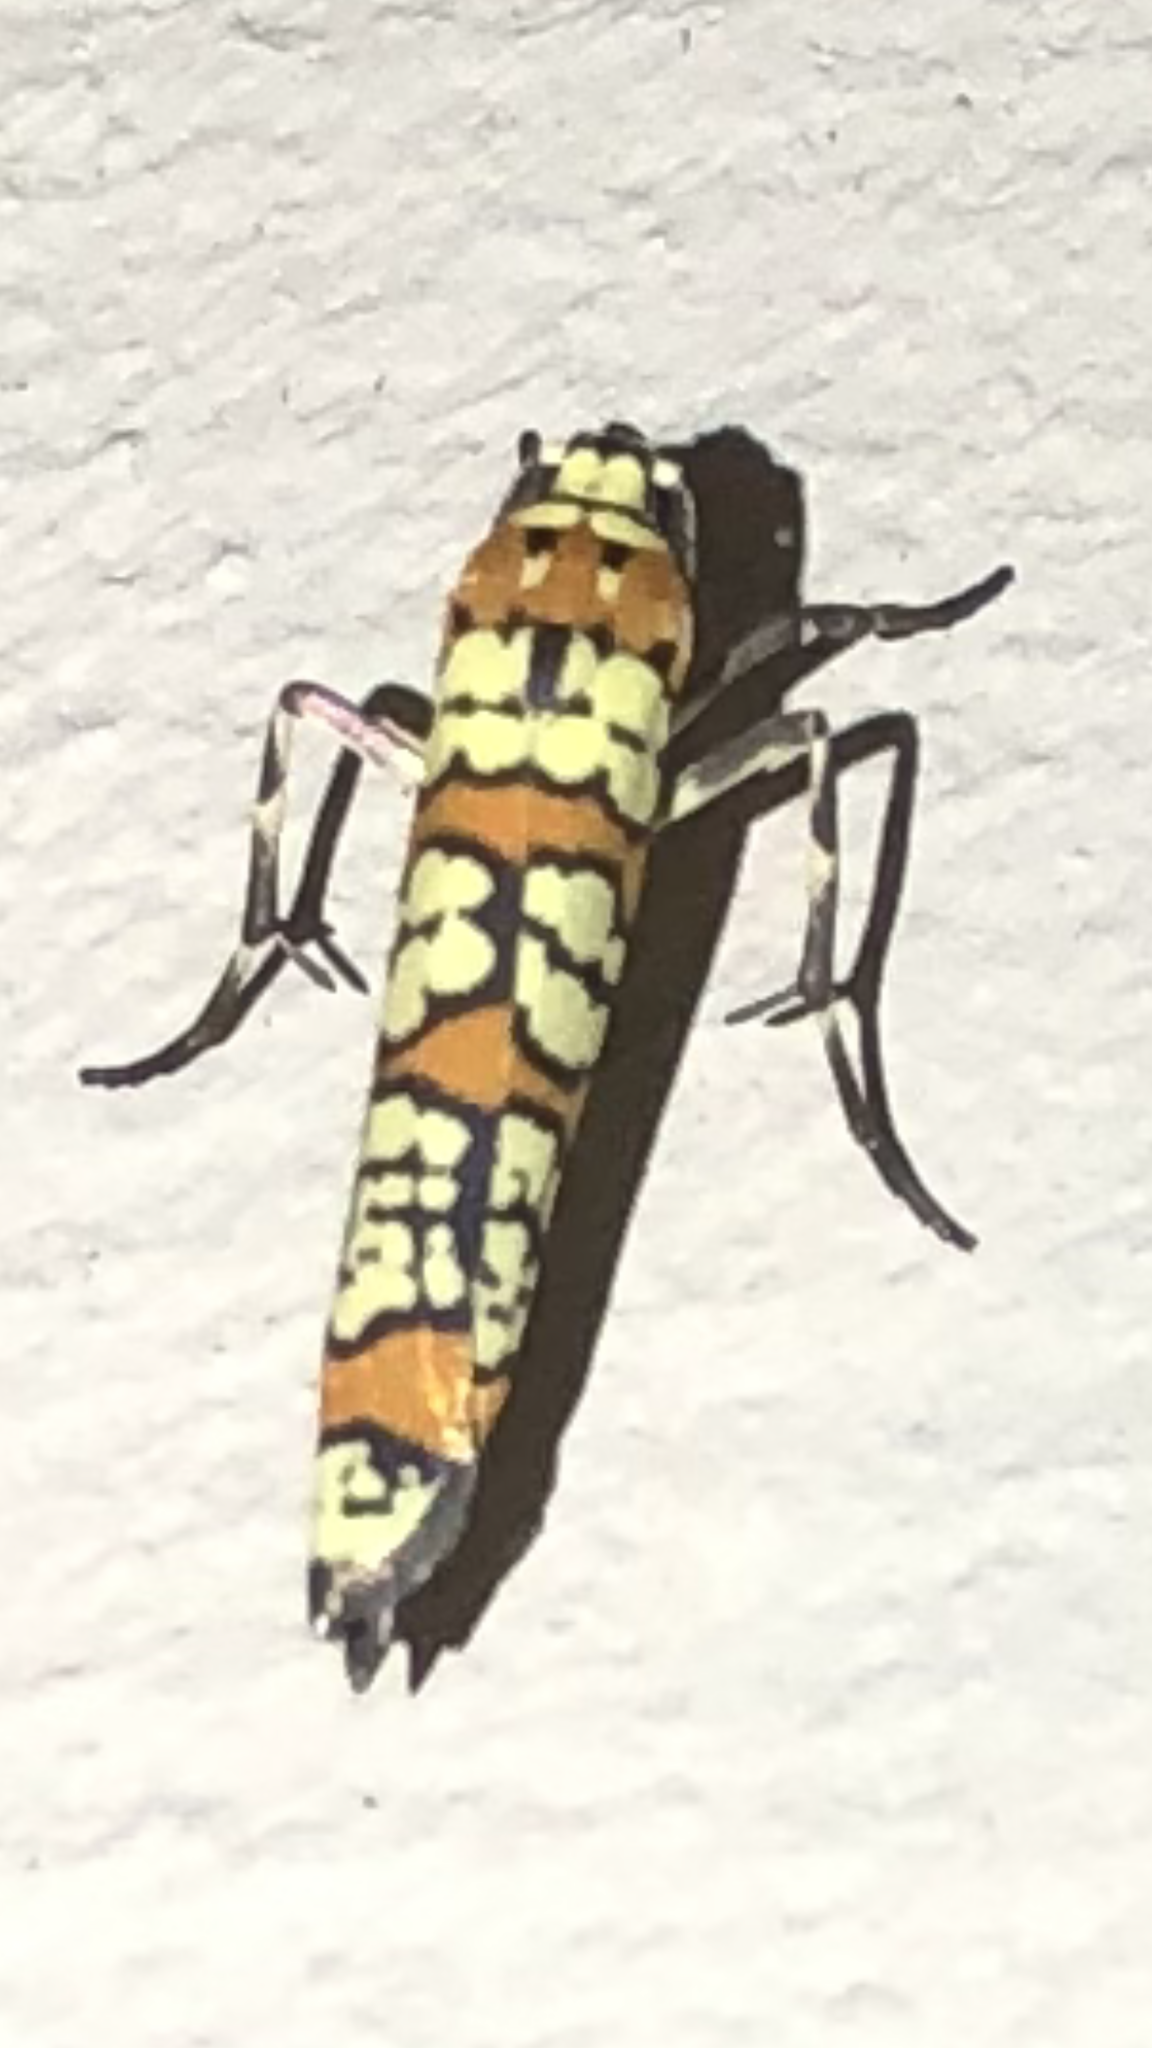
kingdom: Animalia
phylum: Arthropoda
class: Insecta
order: Lepidoptera
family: Attevidae
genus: Atteva
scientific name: Atteva punctella
